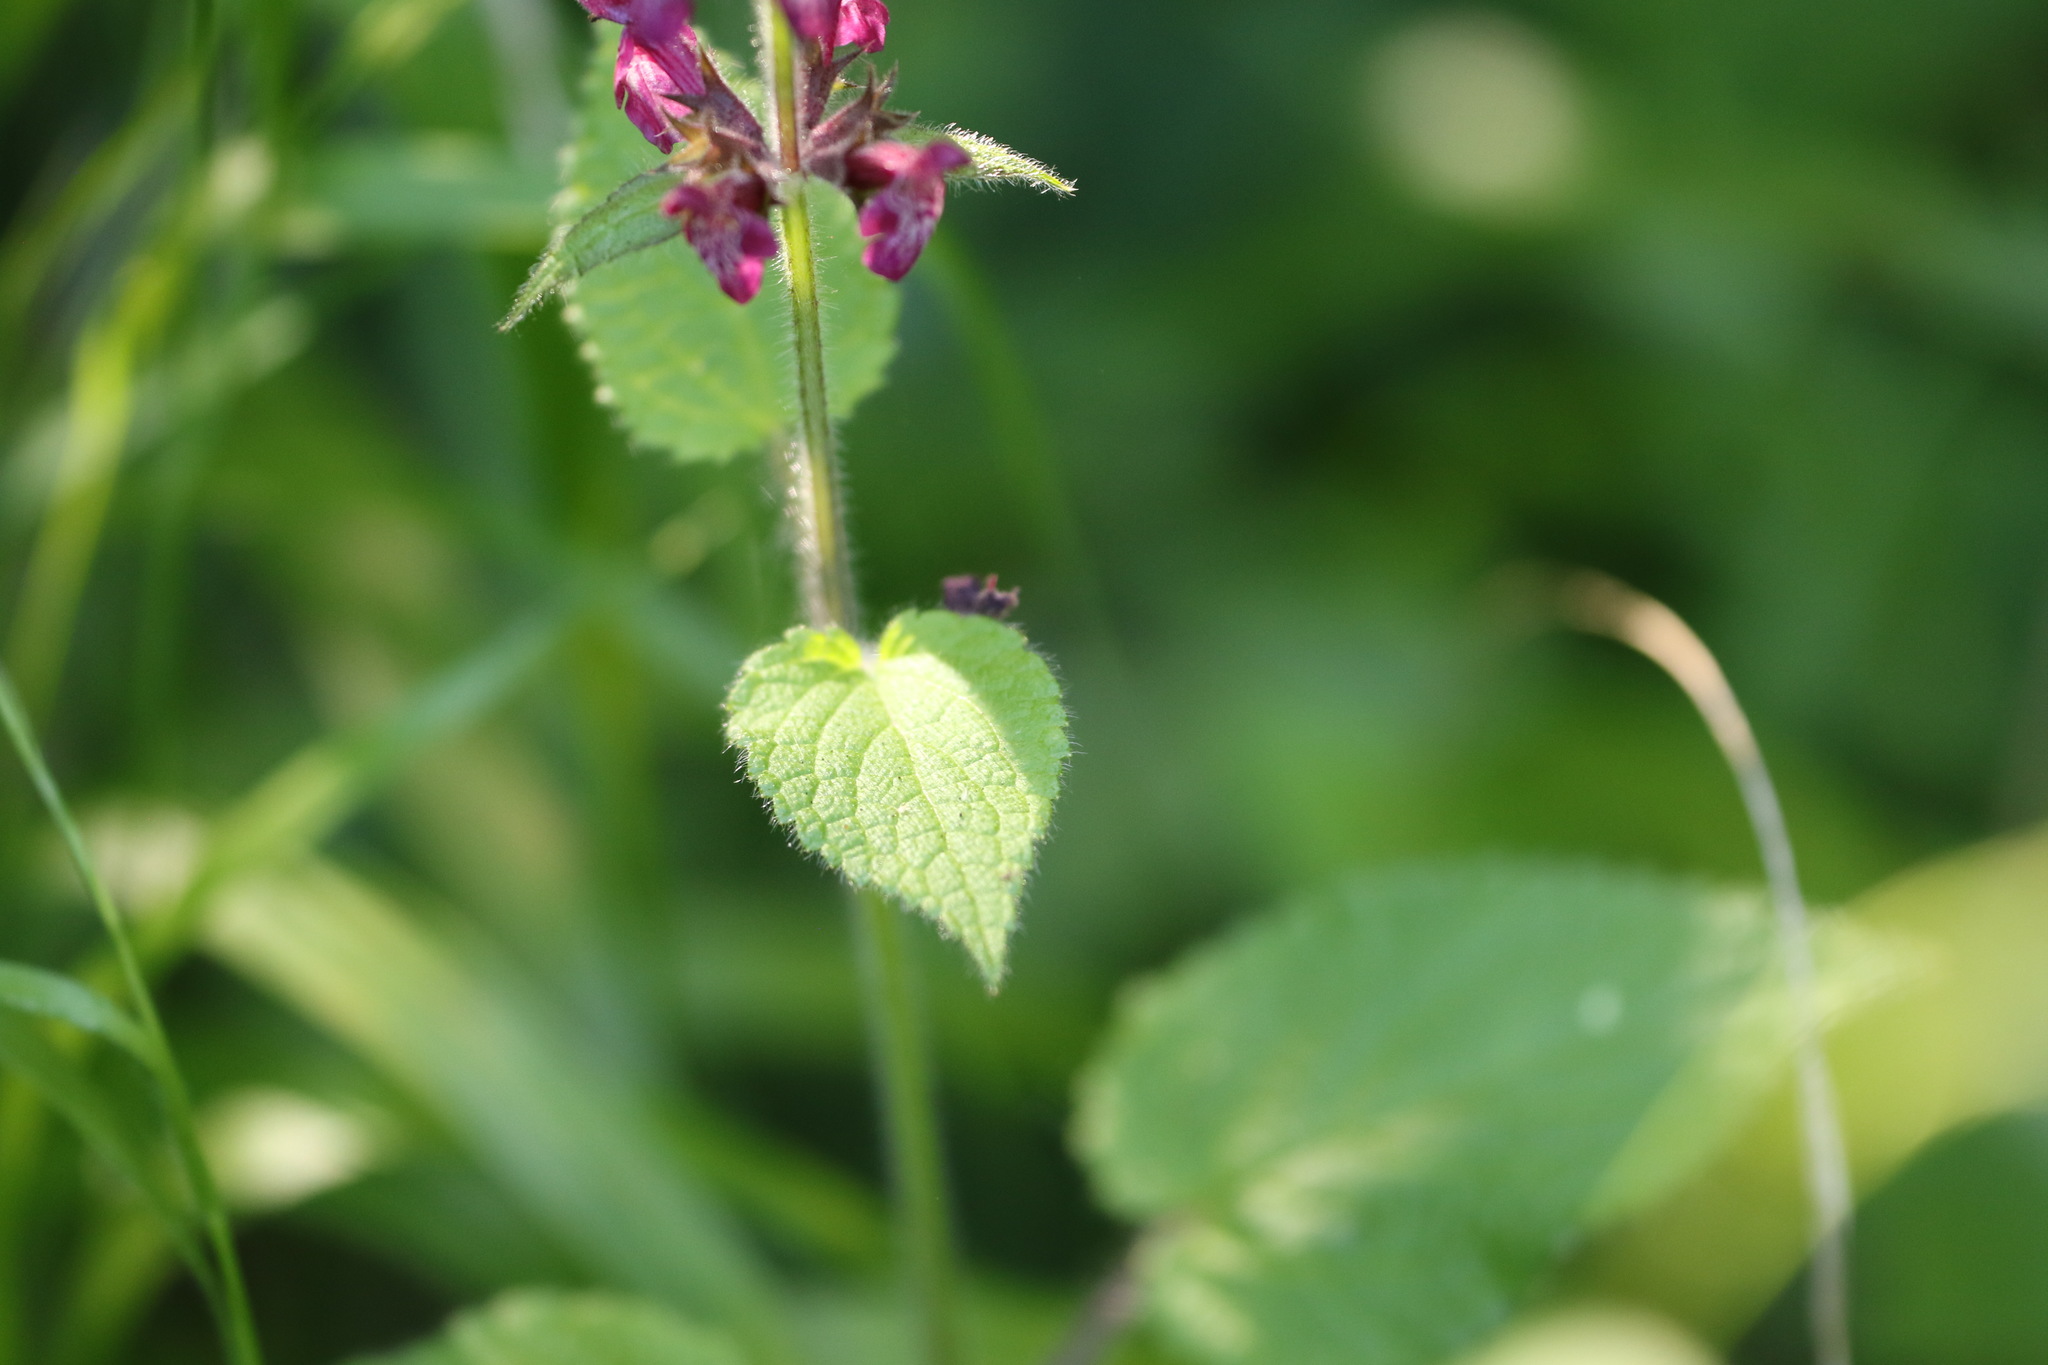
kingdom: Plantae
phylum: Tracheophyta
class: Magnoliopsida
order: Lamiales
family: Lamiaceae
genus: Stachys
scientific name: Stachys sylvatica
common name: Hedge woundwort
